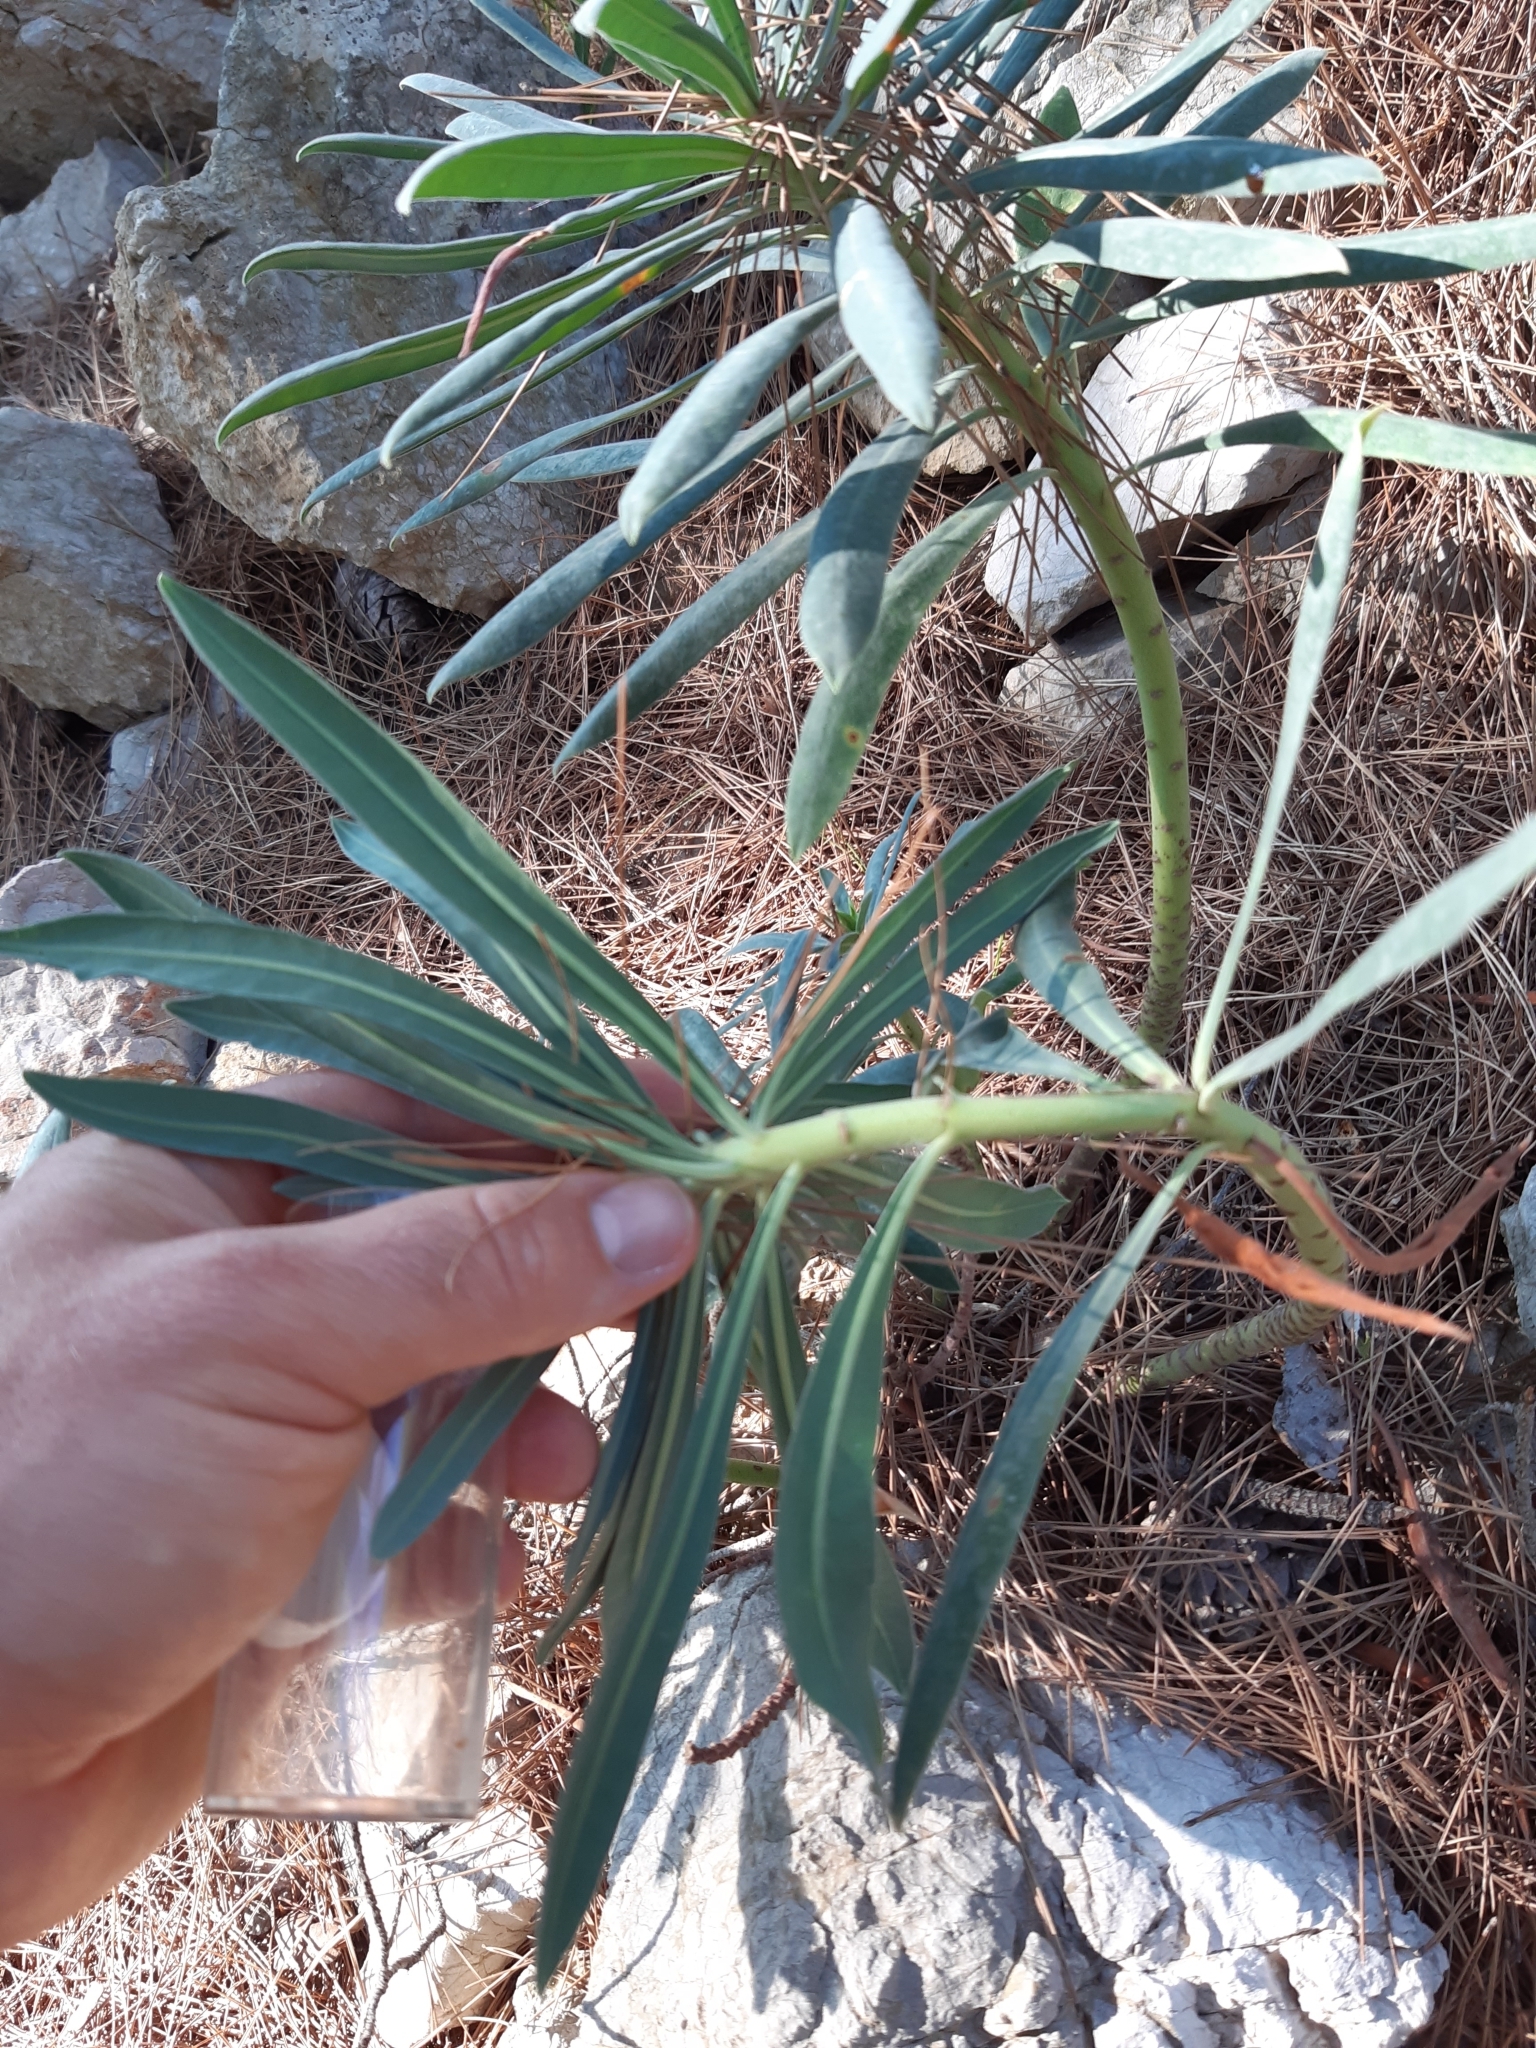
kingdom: Plantae
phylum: Tracheophyta
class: Magnoliopsida
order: Malpighiales
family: Euphorbiaceae
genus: Euphorbia
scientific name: Euphorbia characias
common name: Mediterranean spurge
